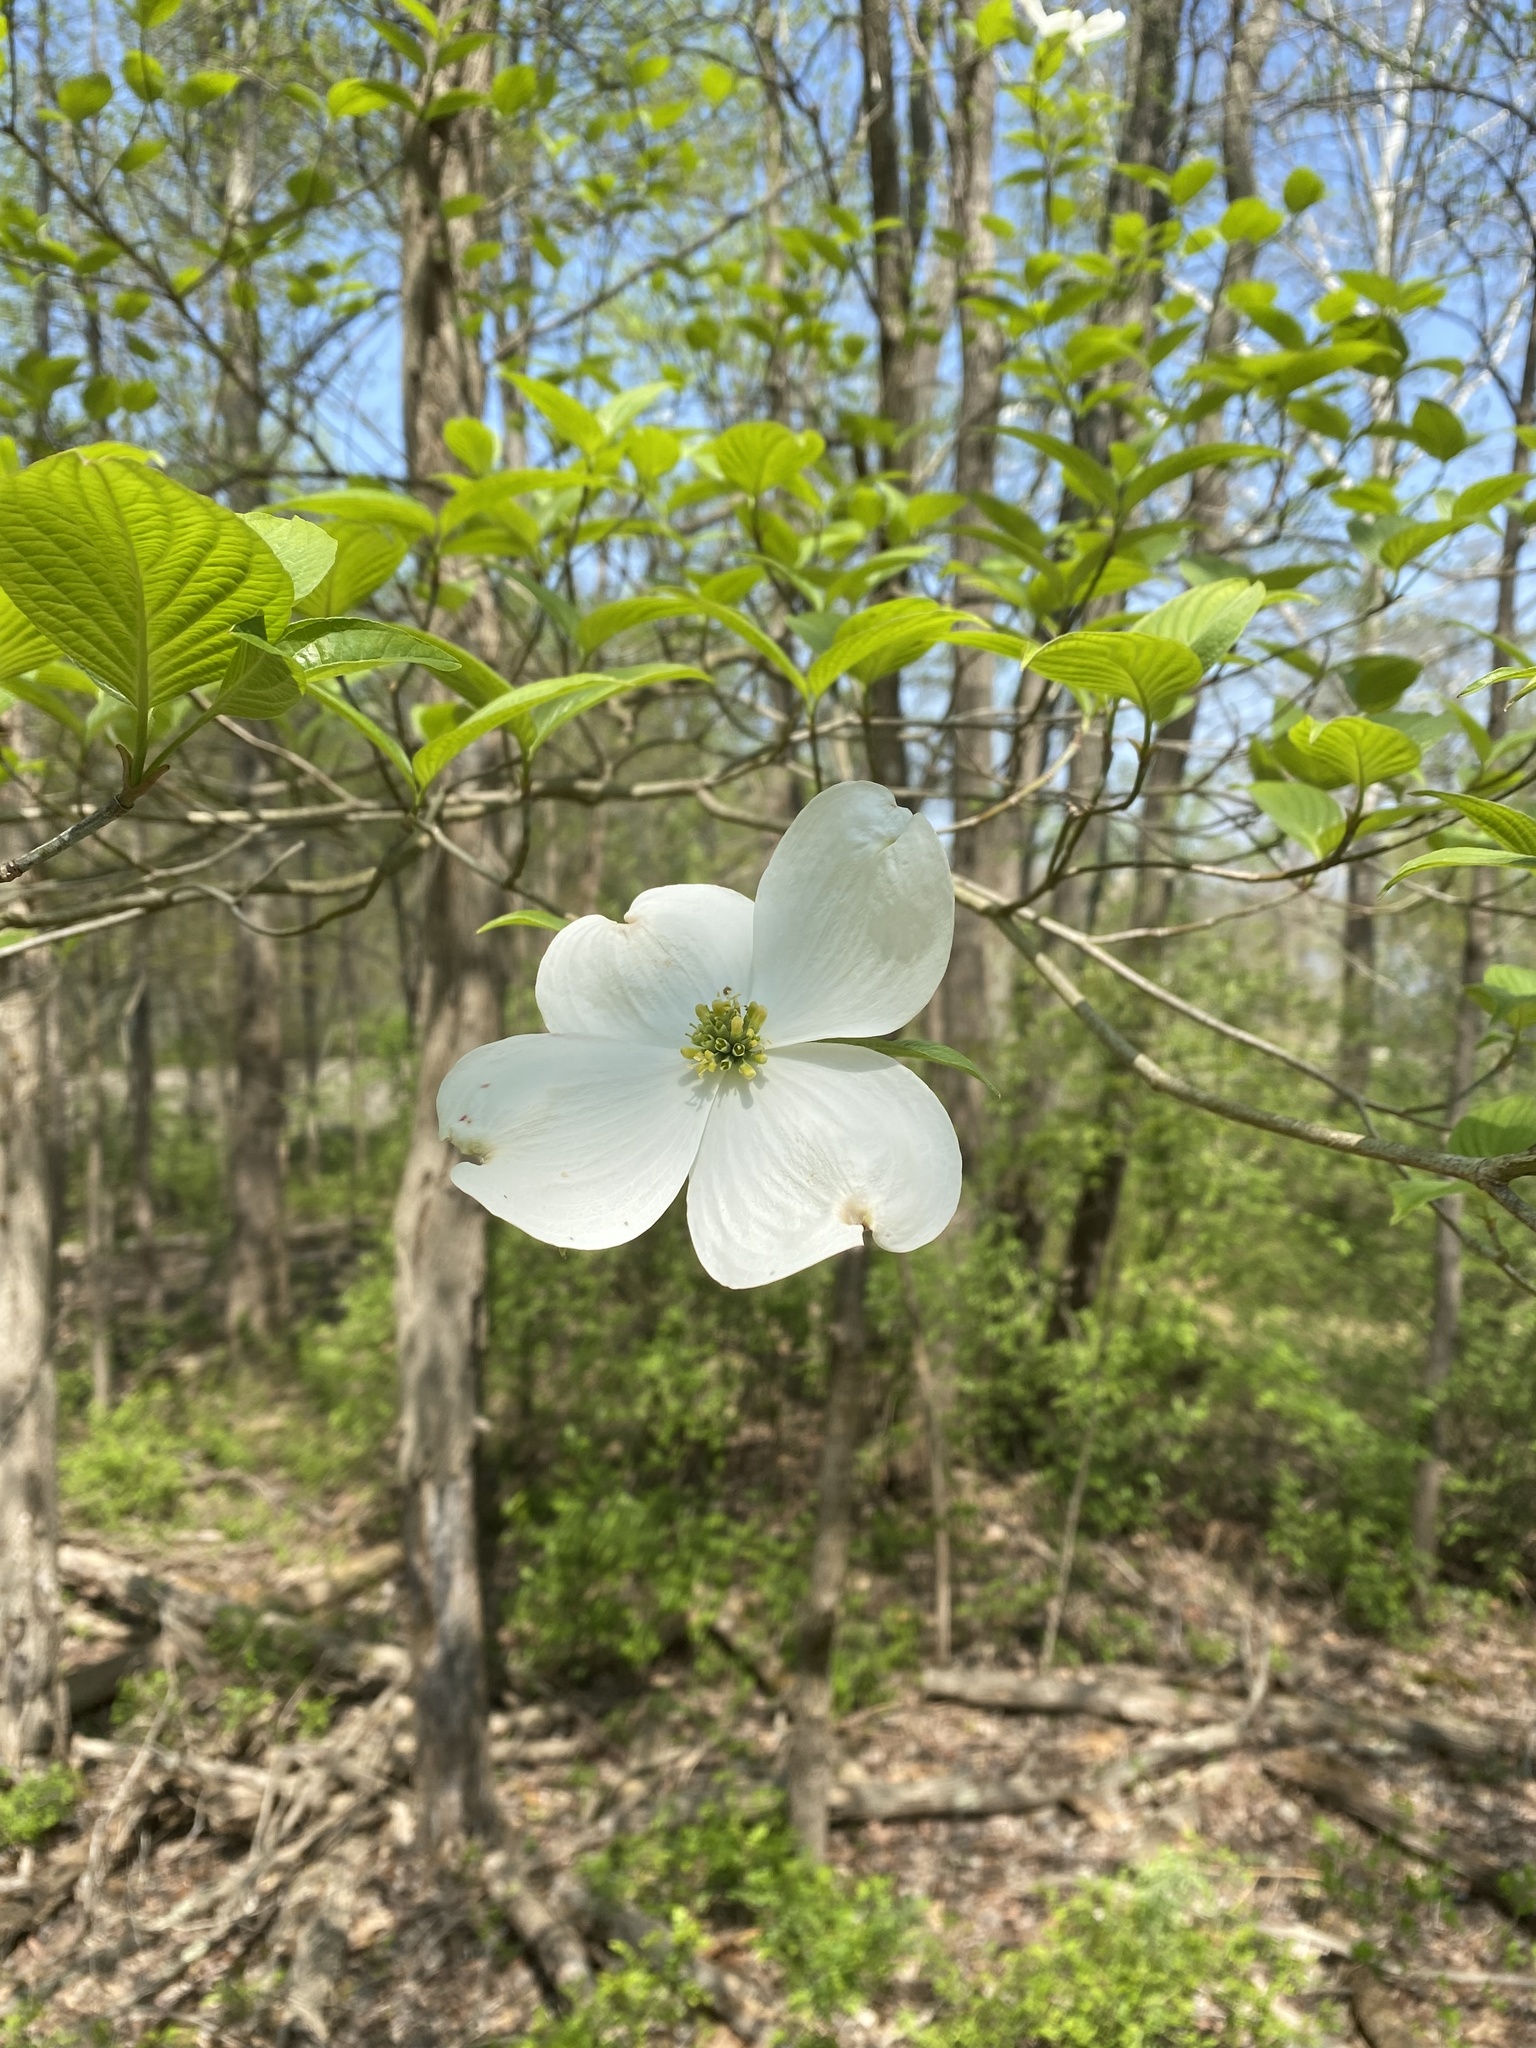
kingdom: Plantae
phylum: Tracheophyta
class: Magnoliopsida
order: Cornales
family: Cornaceae
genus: Cornus
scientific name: Cornus florida
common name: Flowering dogwood
